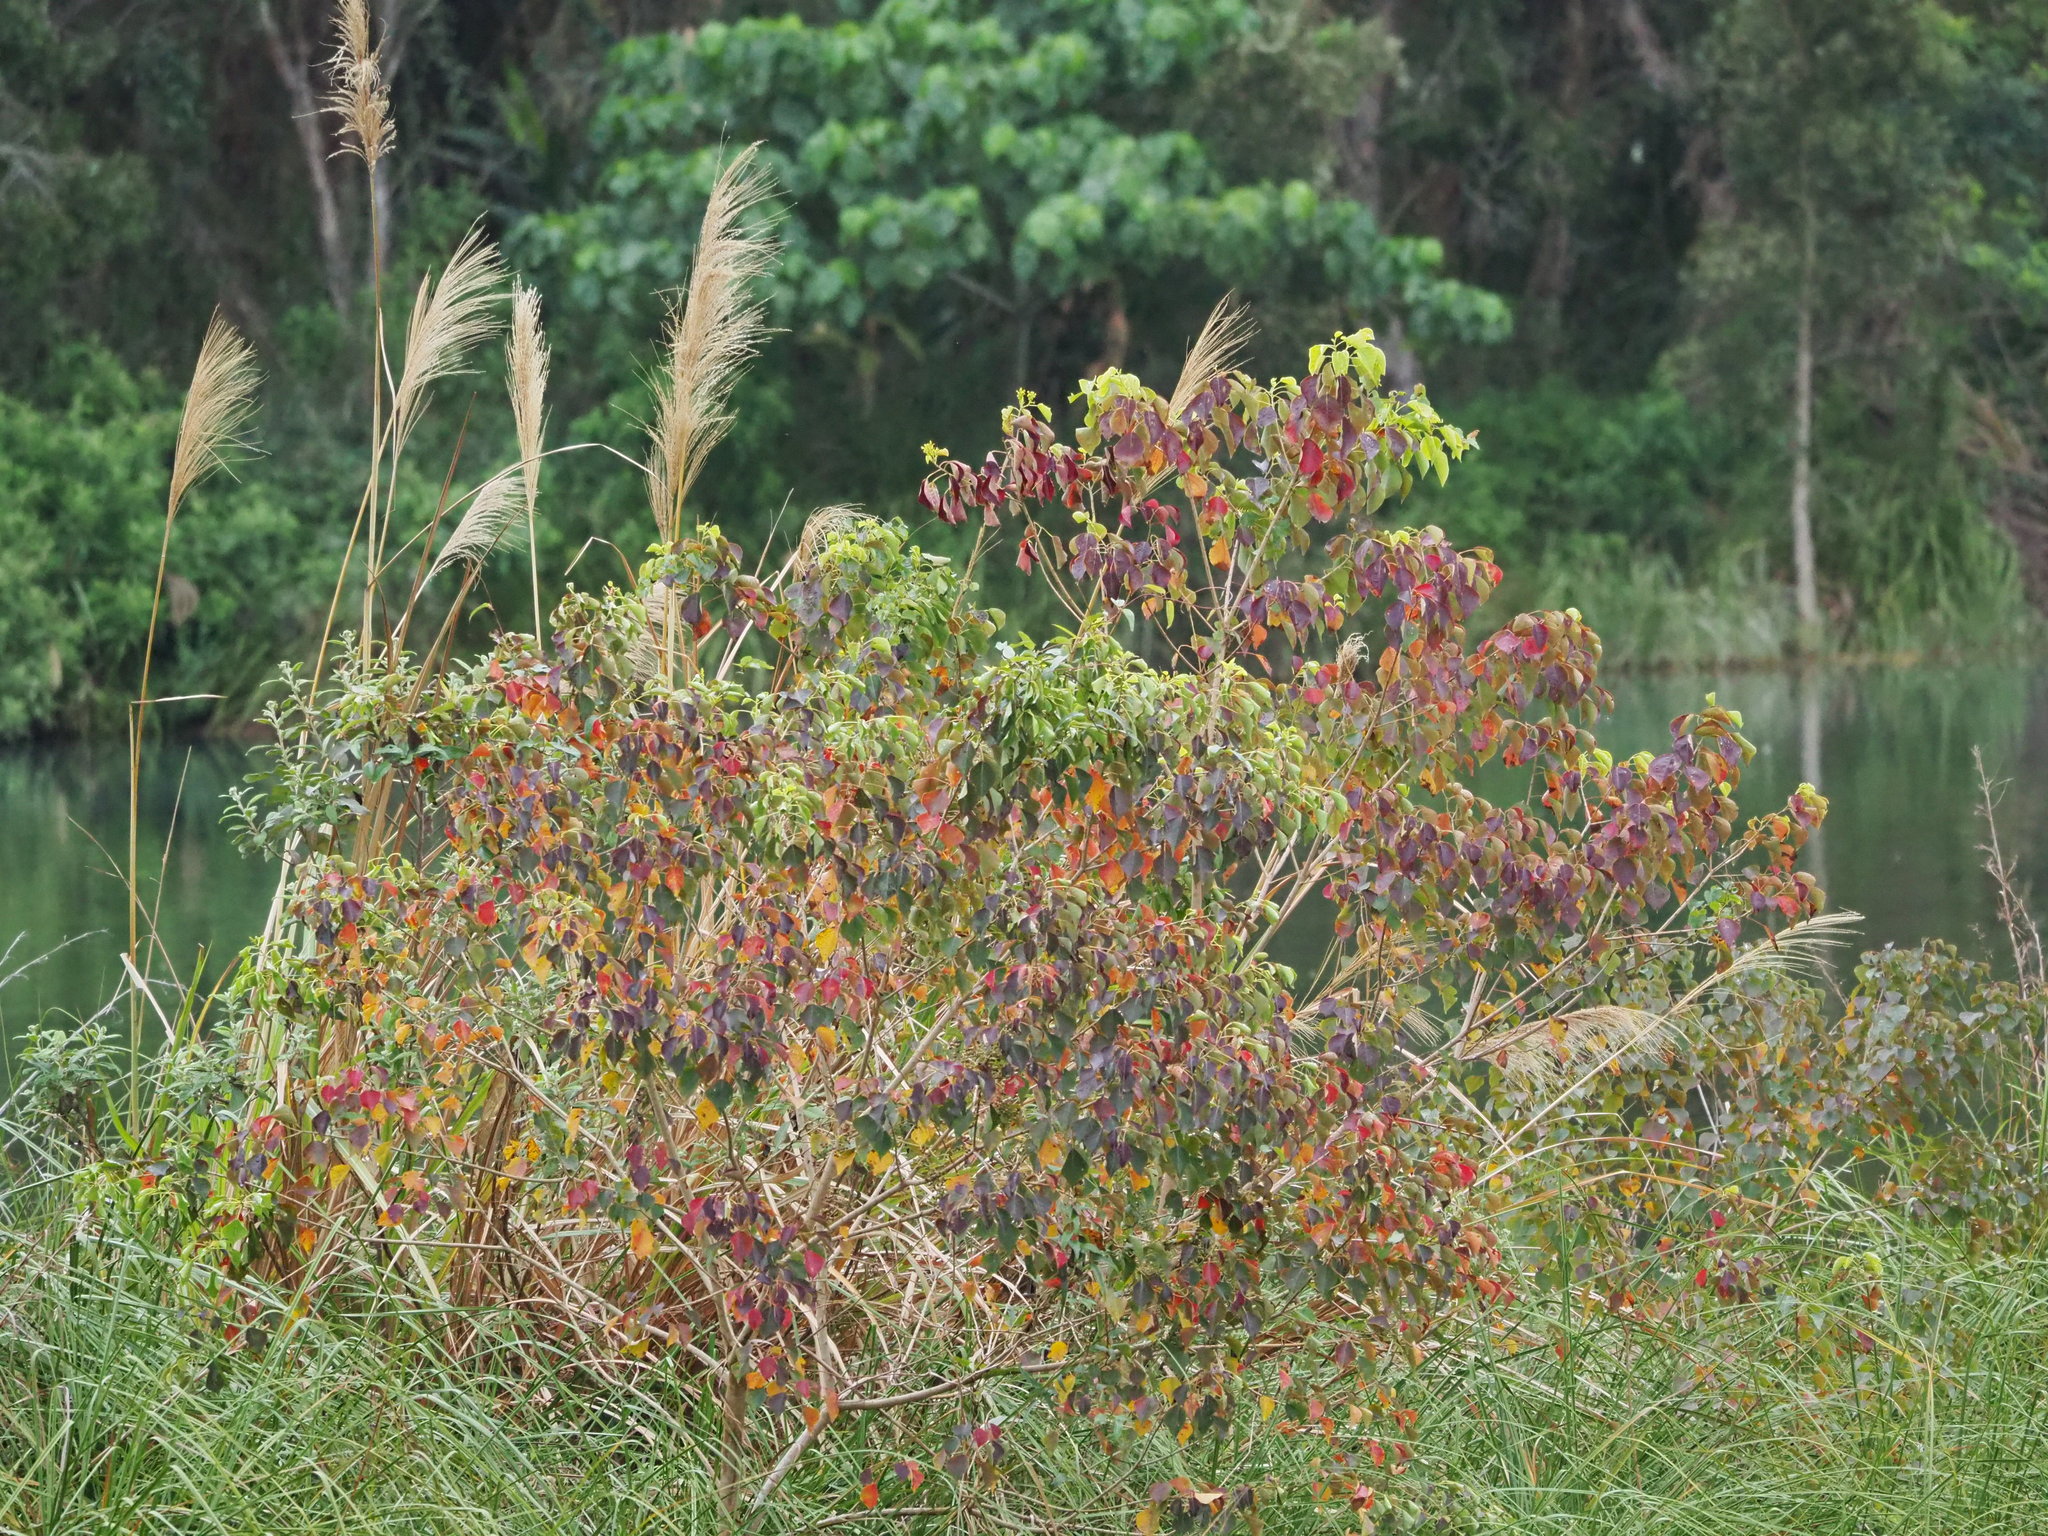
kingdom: Plantae
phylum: Tracheophyta
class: Magnoliopsida
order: Malpighiales
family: Euphorbiaceae
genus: Triadica
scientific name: Triadica sebifera
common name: Chinese tallow
